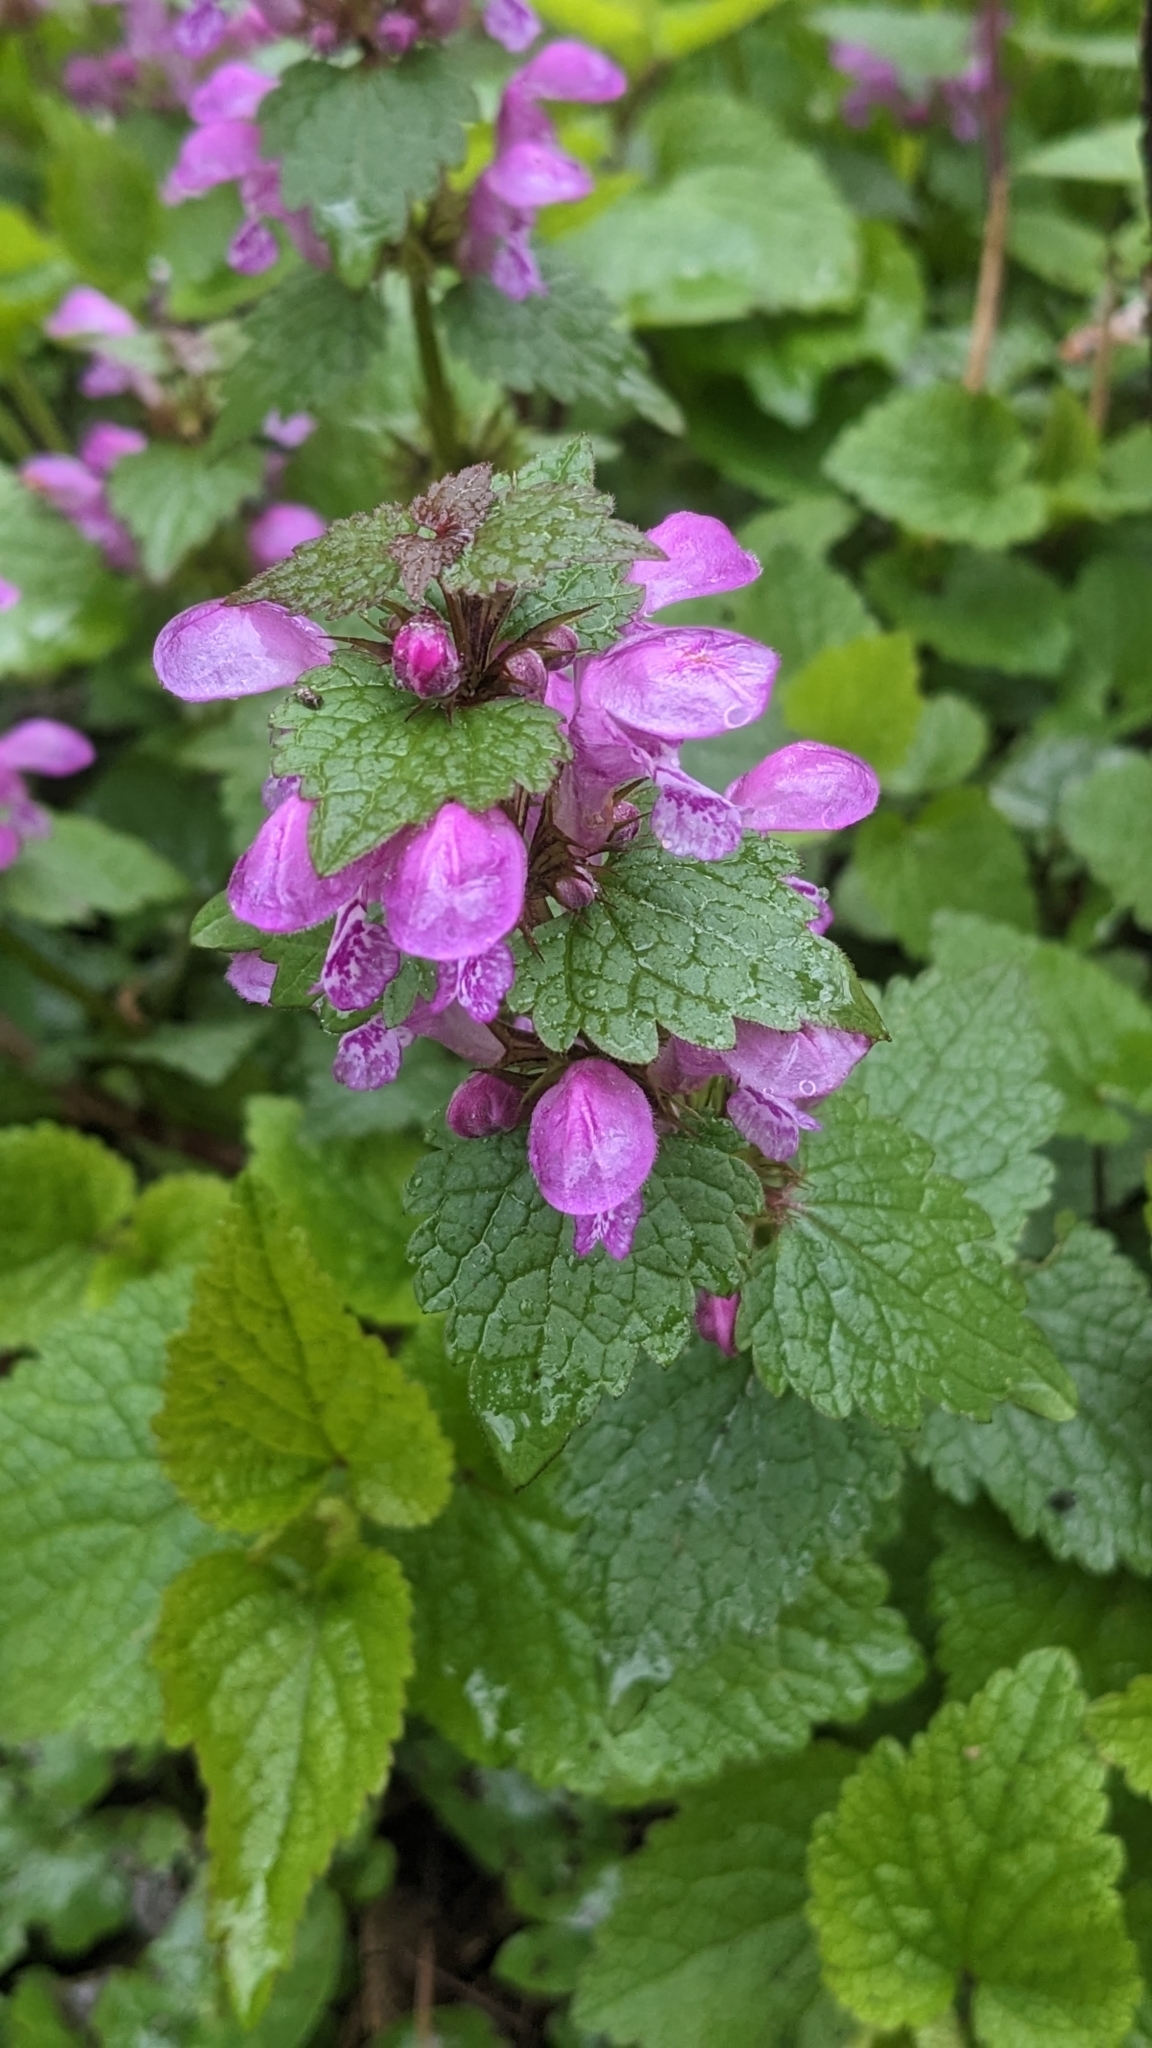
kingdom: Plantae
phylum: Tracheophyta
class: Magnoliopsida
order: Lamiales
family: Lamiaceae
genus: Lamium
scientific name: Lamium maculatum
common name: Spotted dead-nettle
